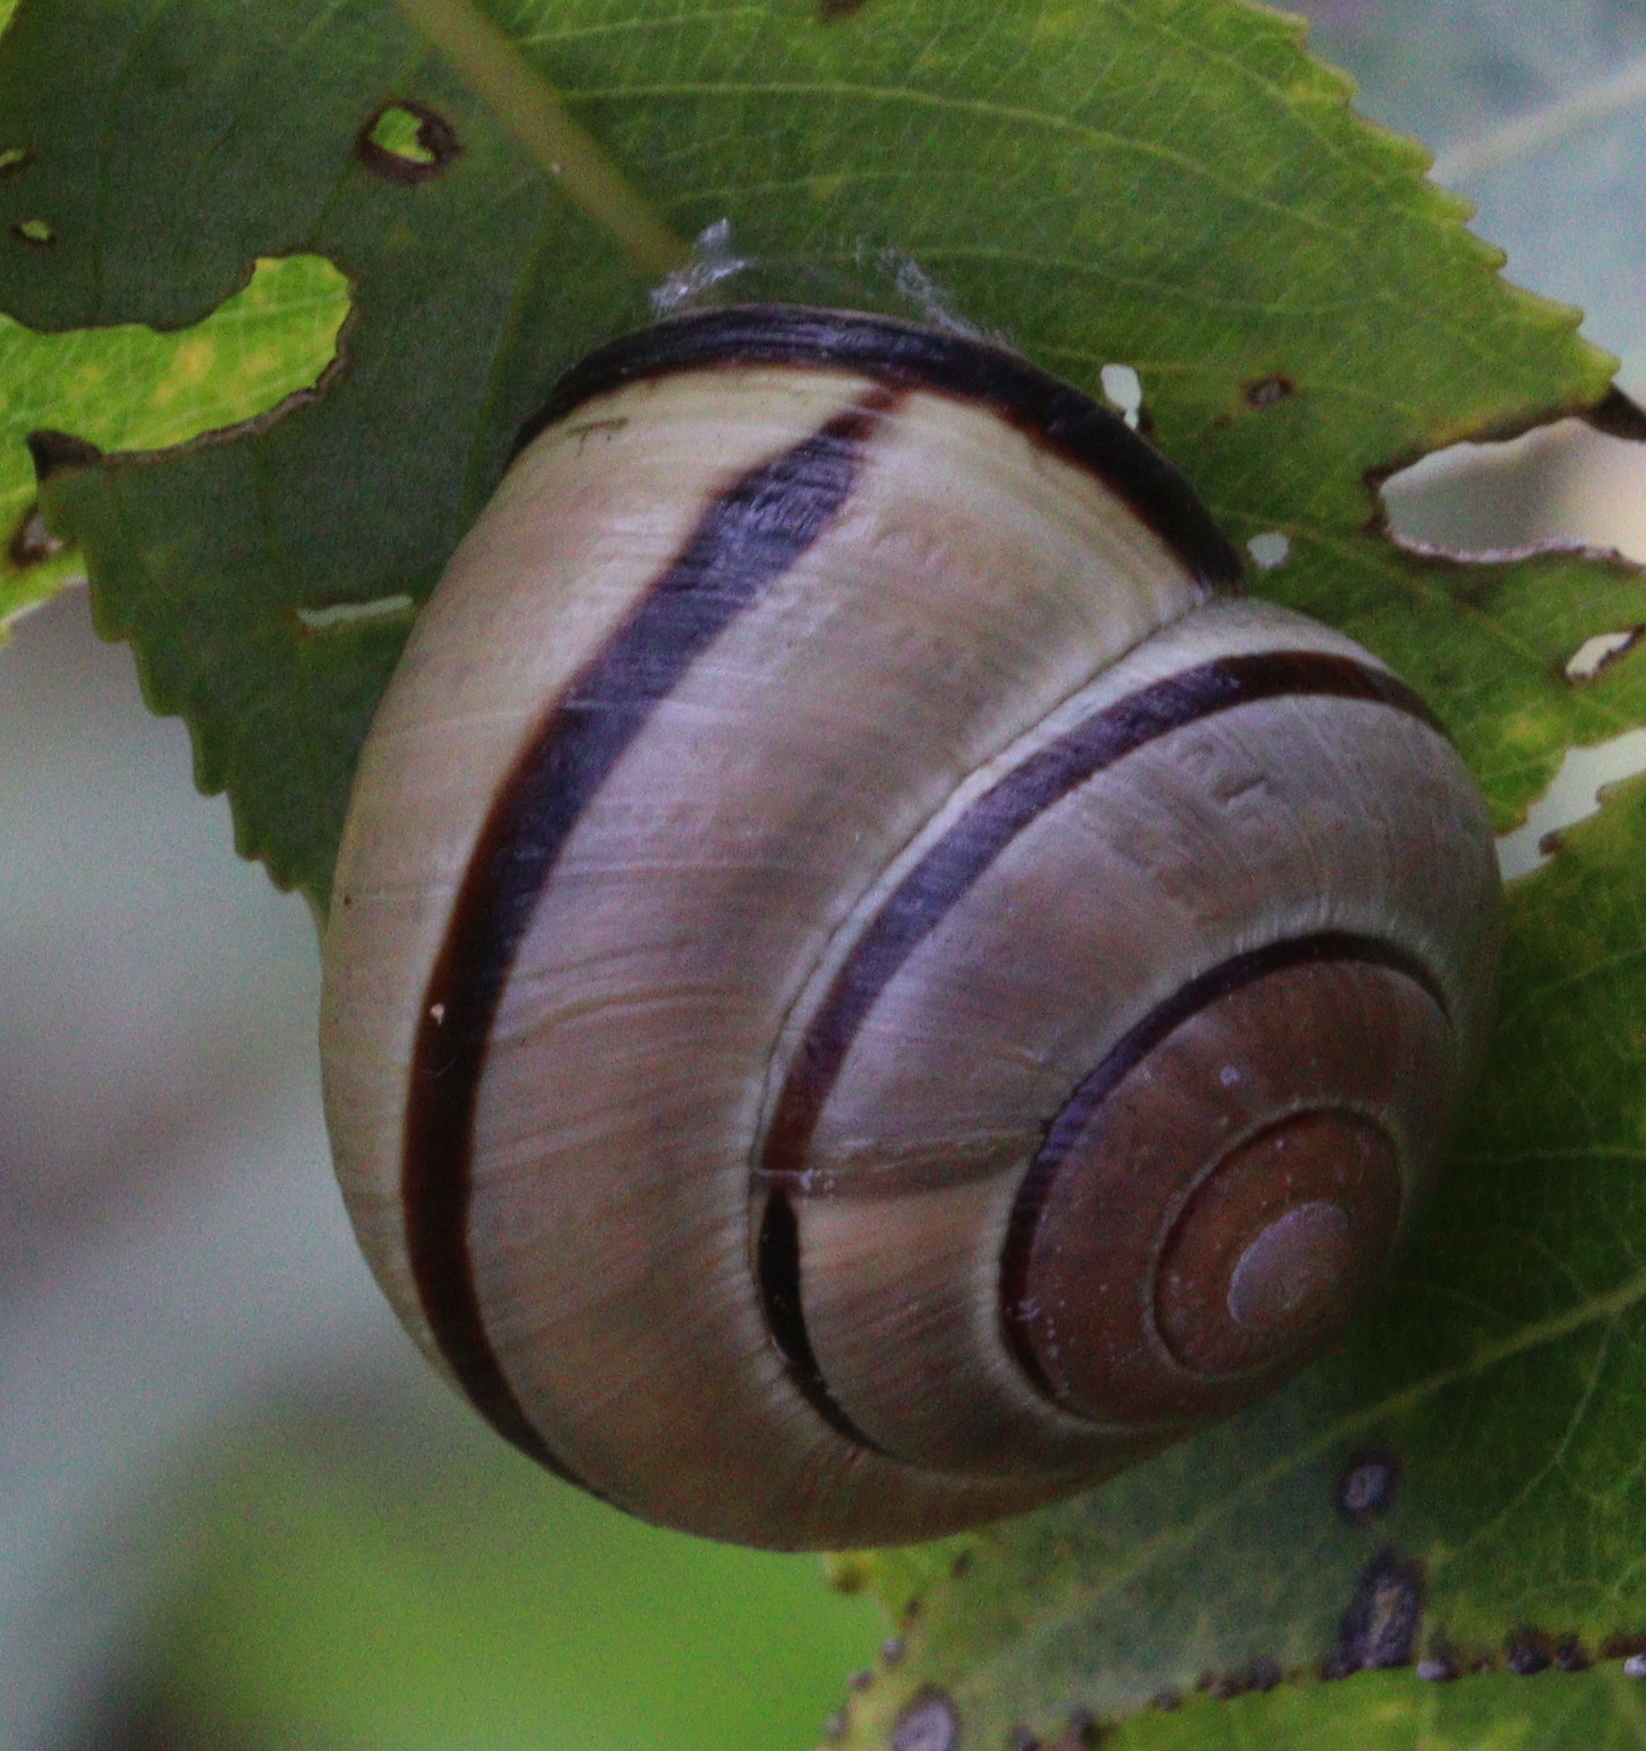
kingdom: Animalia
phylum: Mollusca
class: Gastropoda
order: Stylommatophora
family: Helicidae
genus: Cepaea
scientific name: Cepaea nemoralis
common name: Grovesnail
